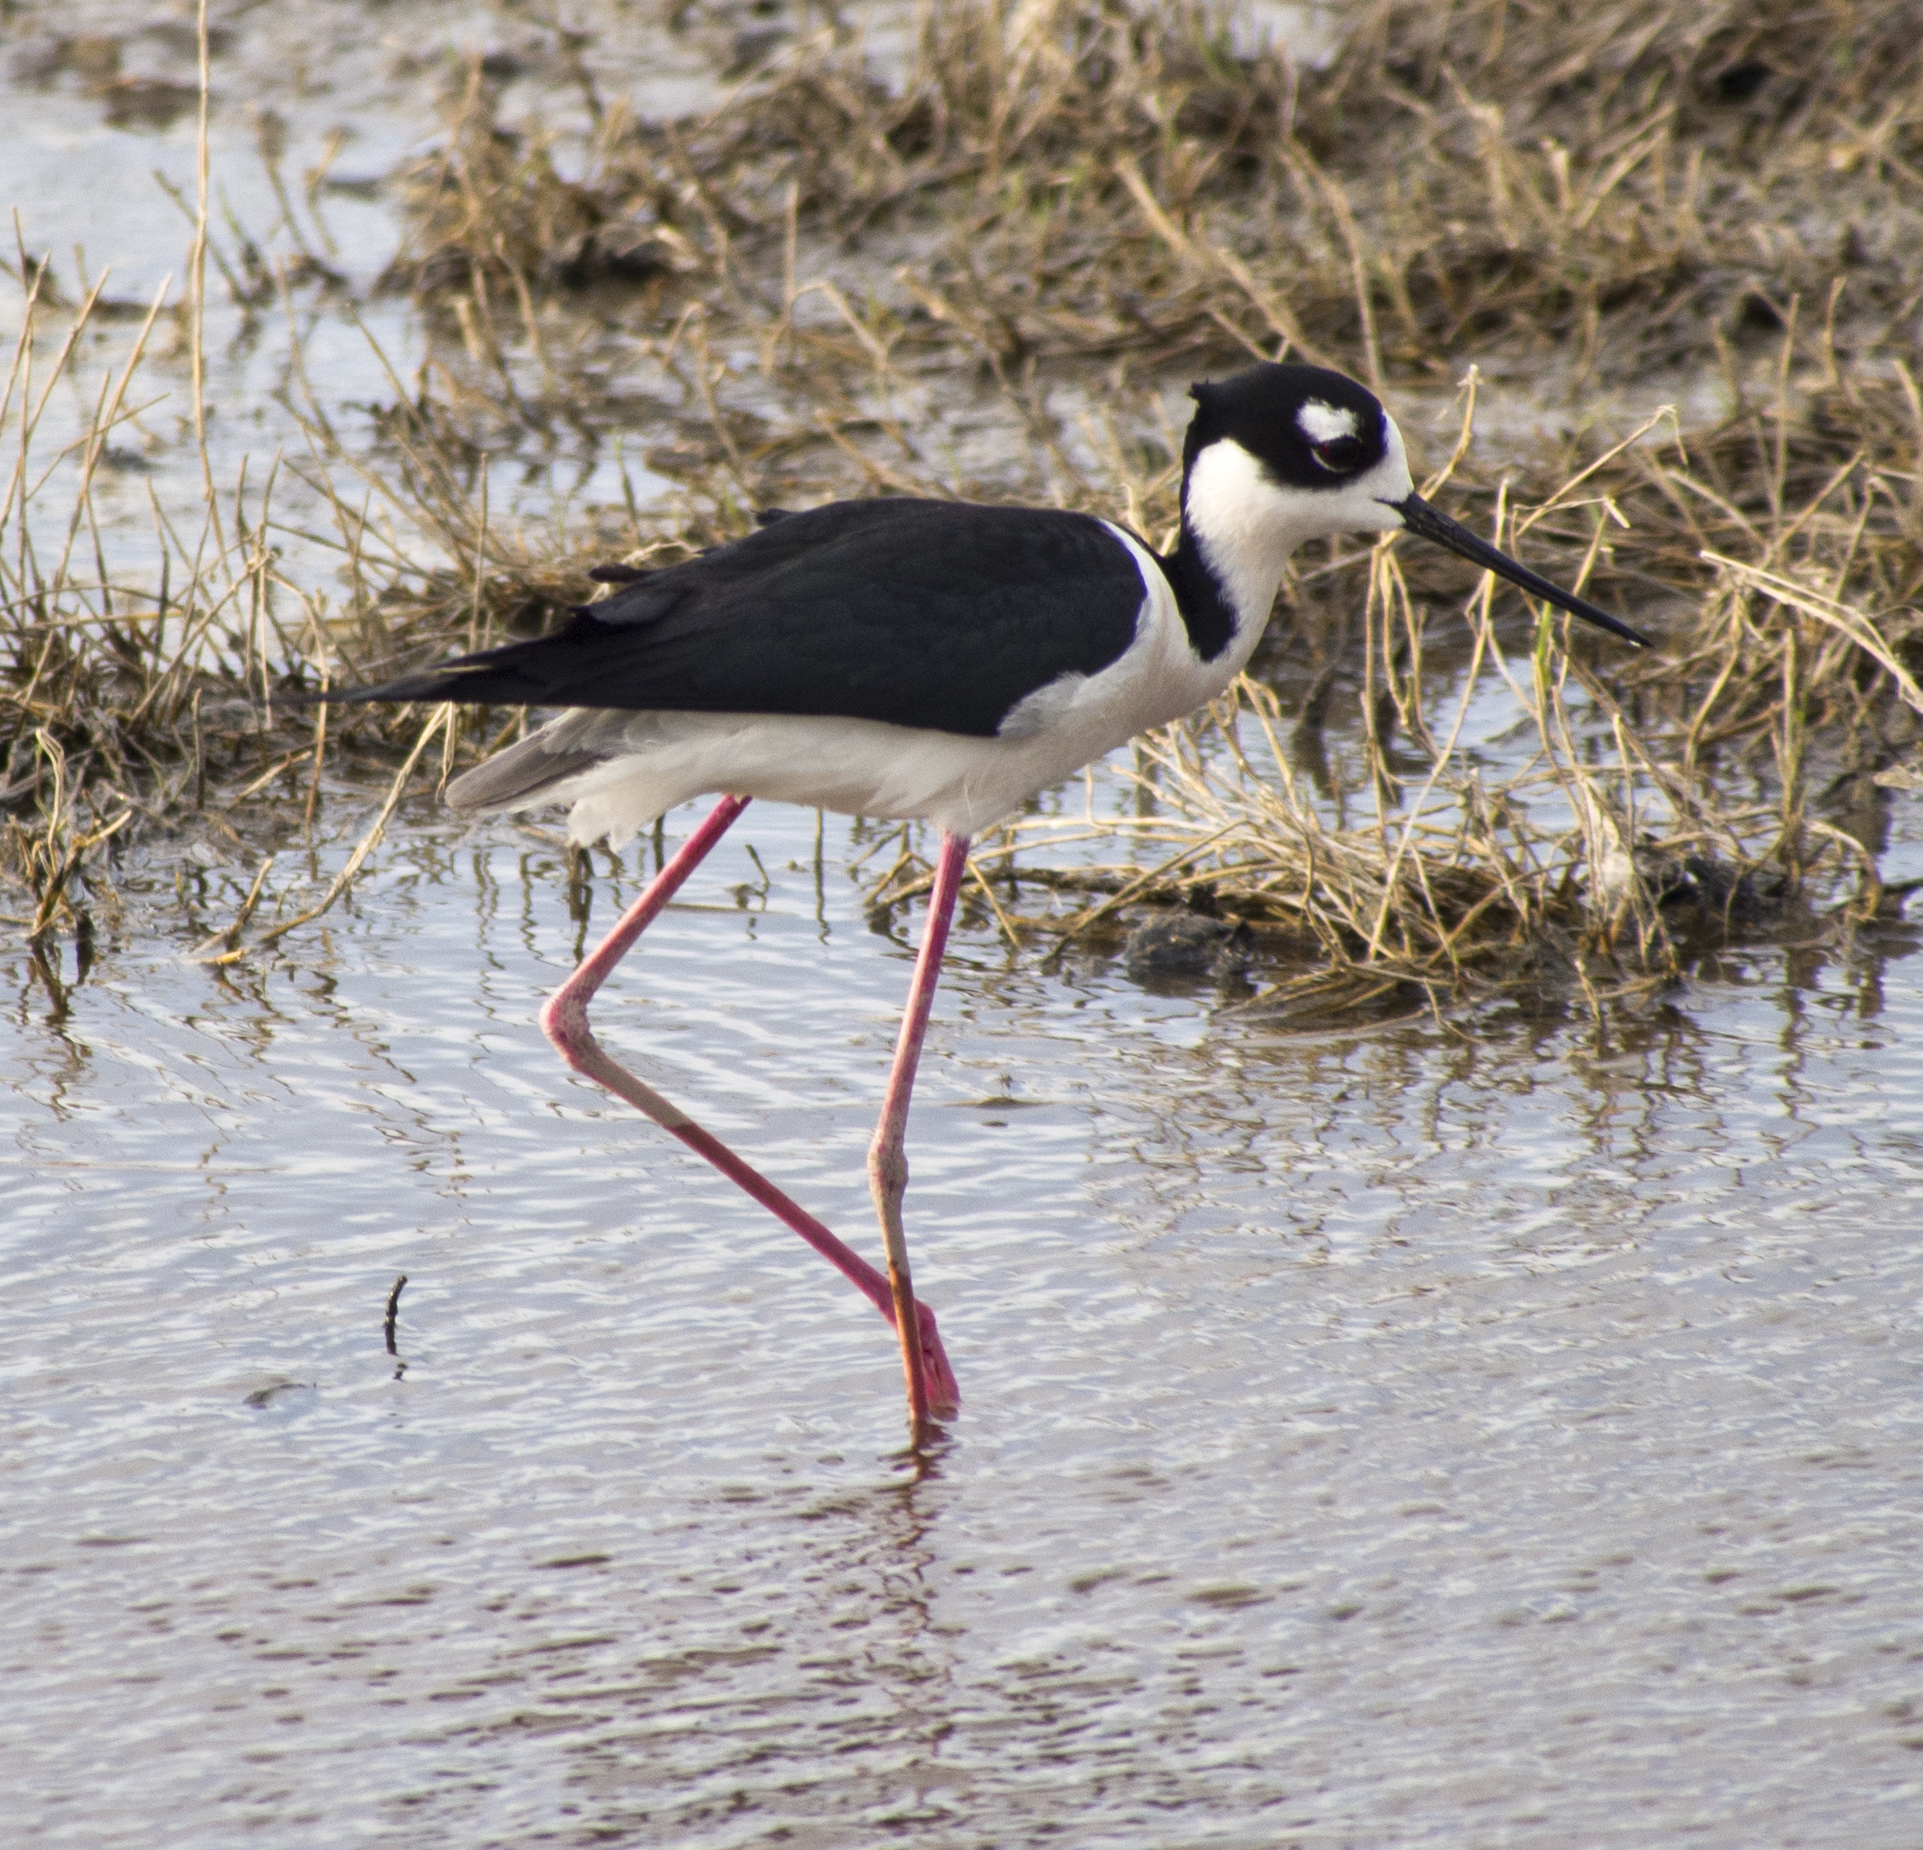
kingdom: Animalia
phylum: Chordata
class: Aves
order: Charadriiformes
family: Recurvirostridae
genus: Himantopus
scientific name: Himantopus mexicanus
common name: Black-necked stilt
